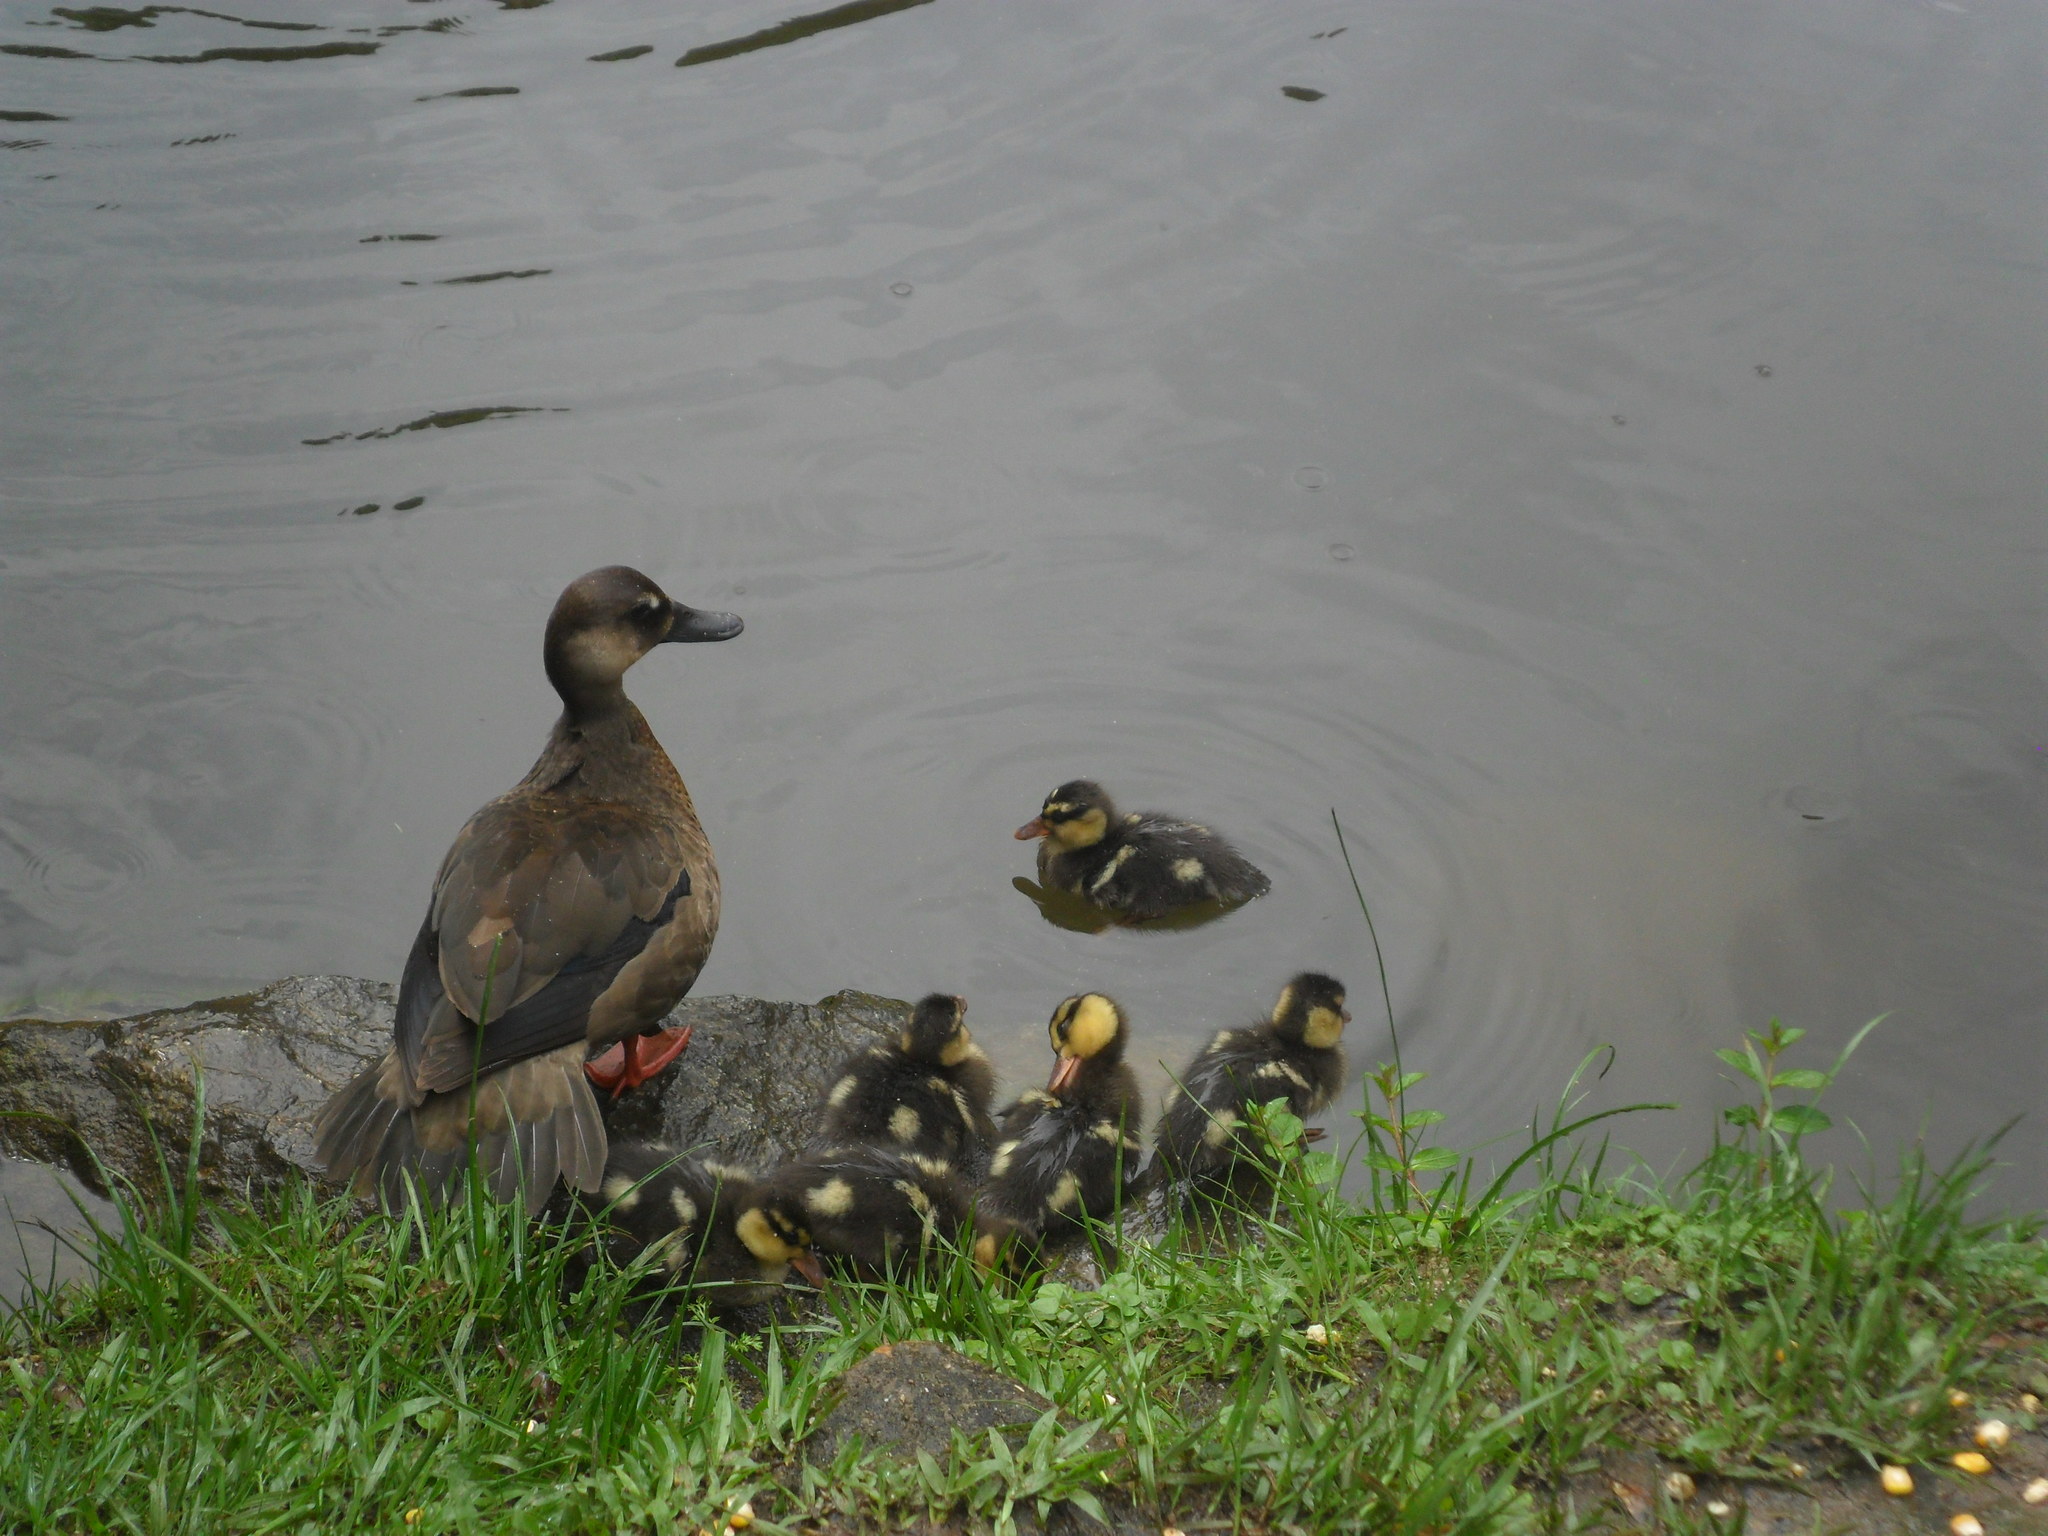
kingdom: Animalia
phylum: Chordata
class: Aves
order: Anseriformes
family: Anatidae
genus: Amazonetta
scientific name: Amazonetta brasiliensis
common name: Brazilian teal
